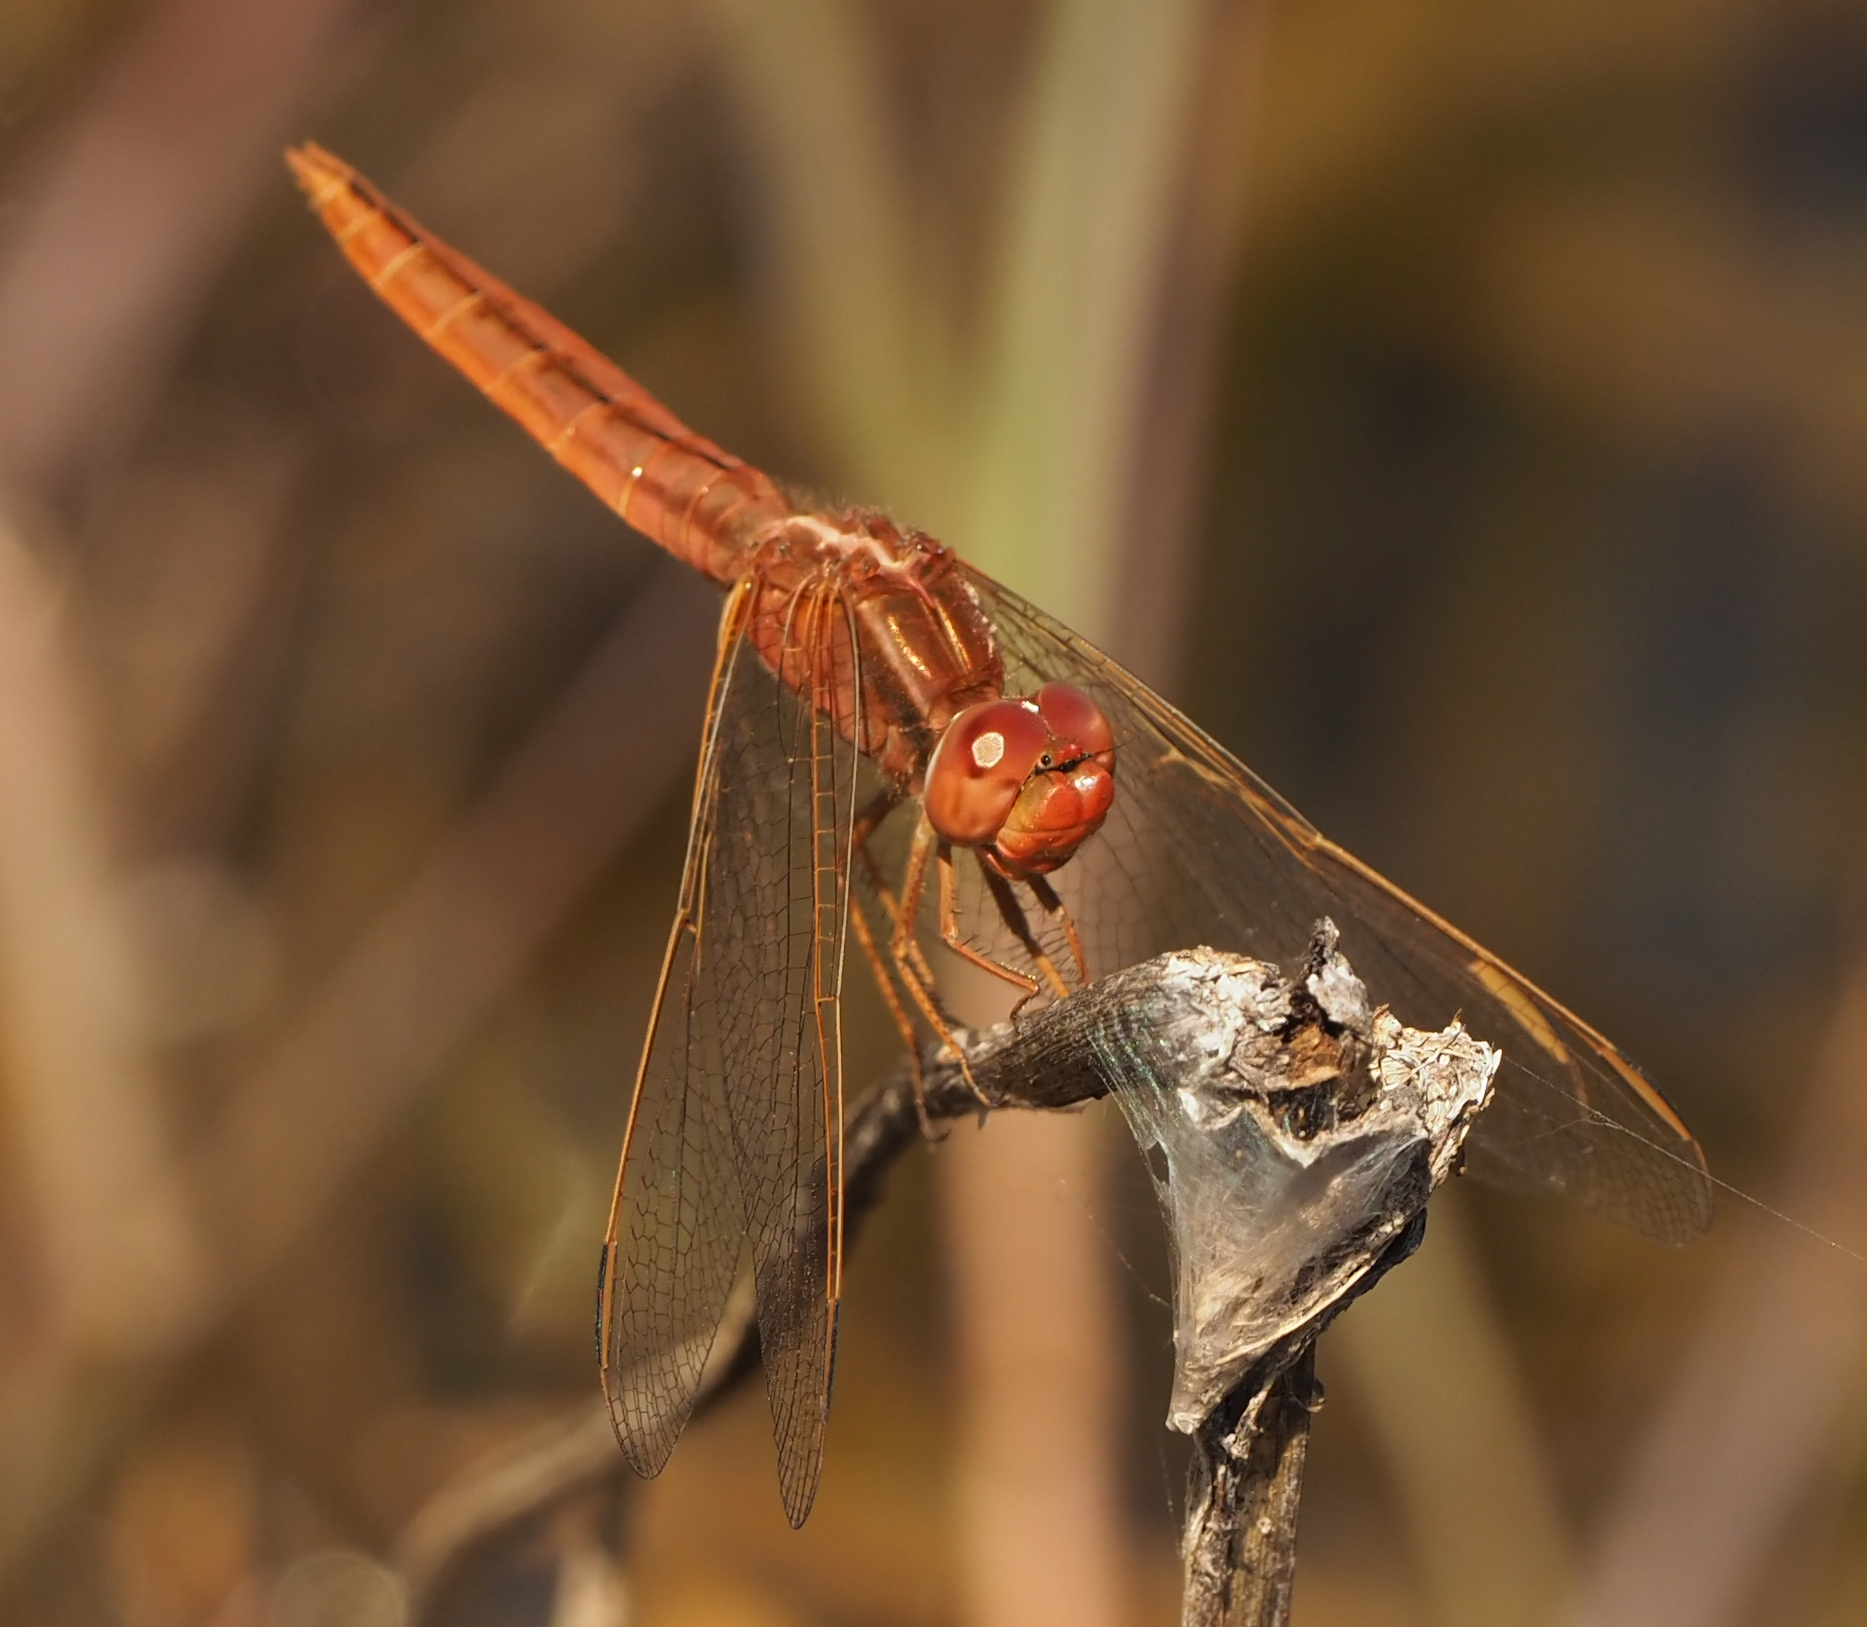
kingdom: Animalia
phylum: Arthropoda
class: Insecta
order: Odonata
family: Libellulidae
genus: Crocothemis
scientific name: Crocothemis erythraea
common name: Scarlet dragonfly
